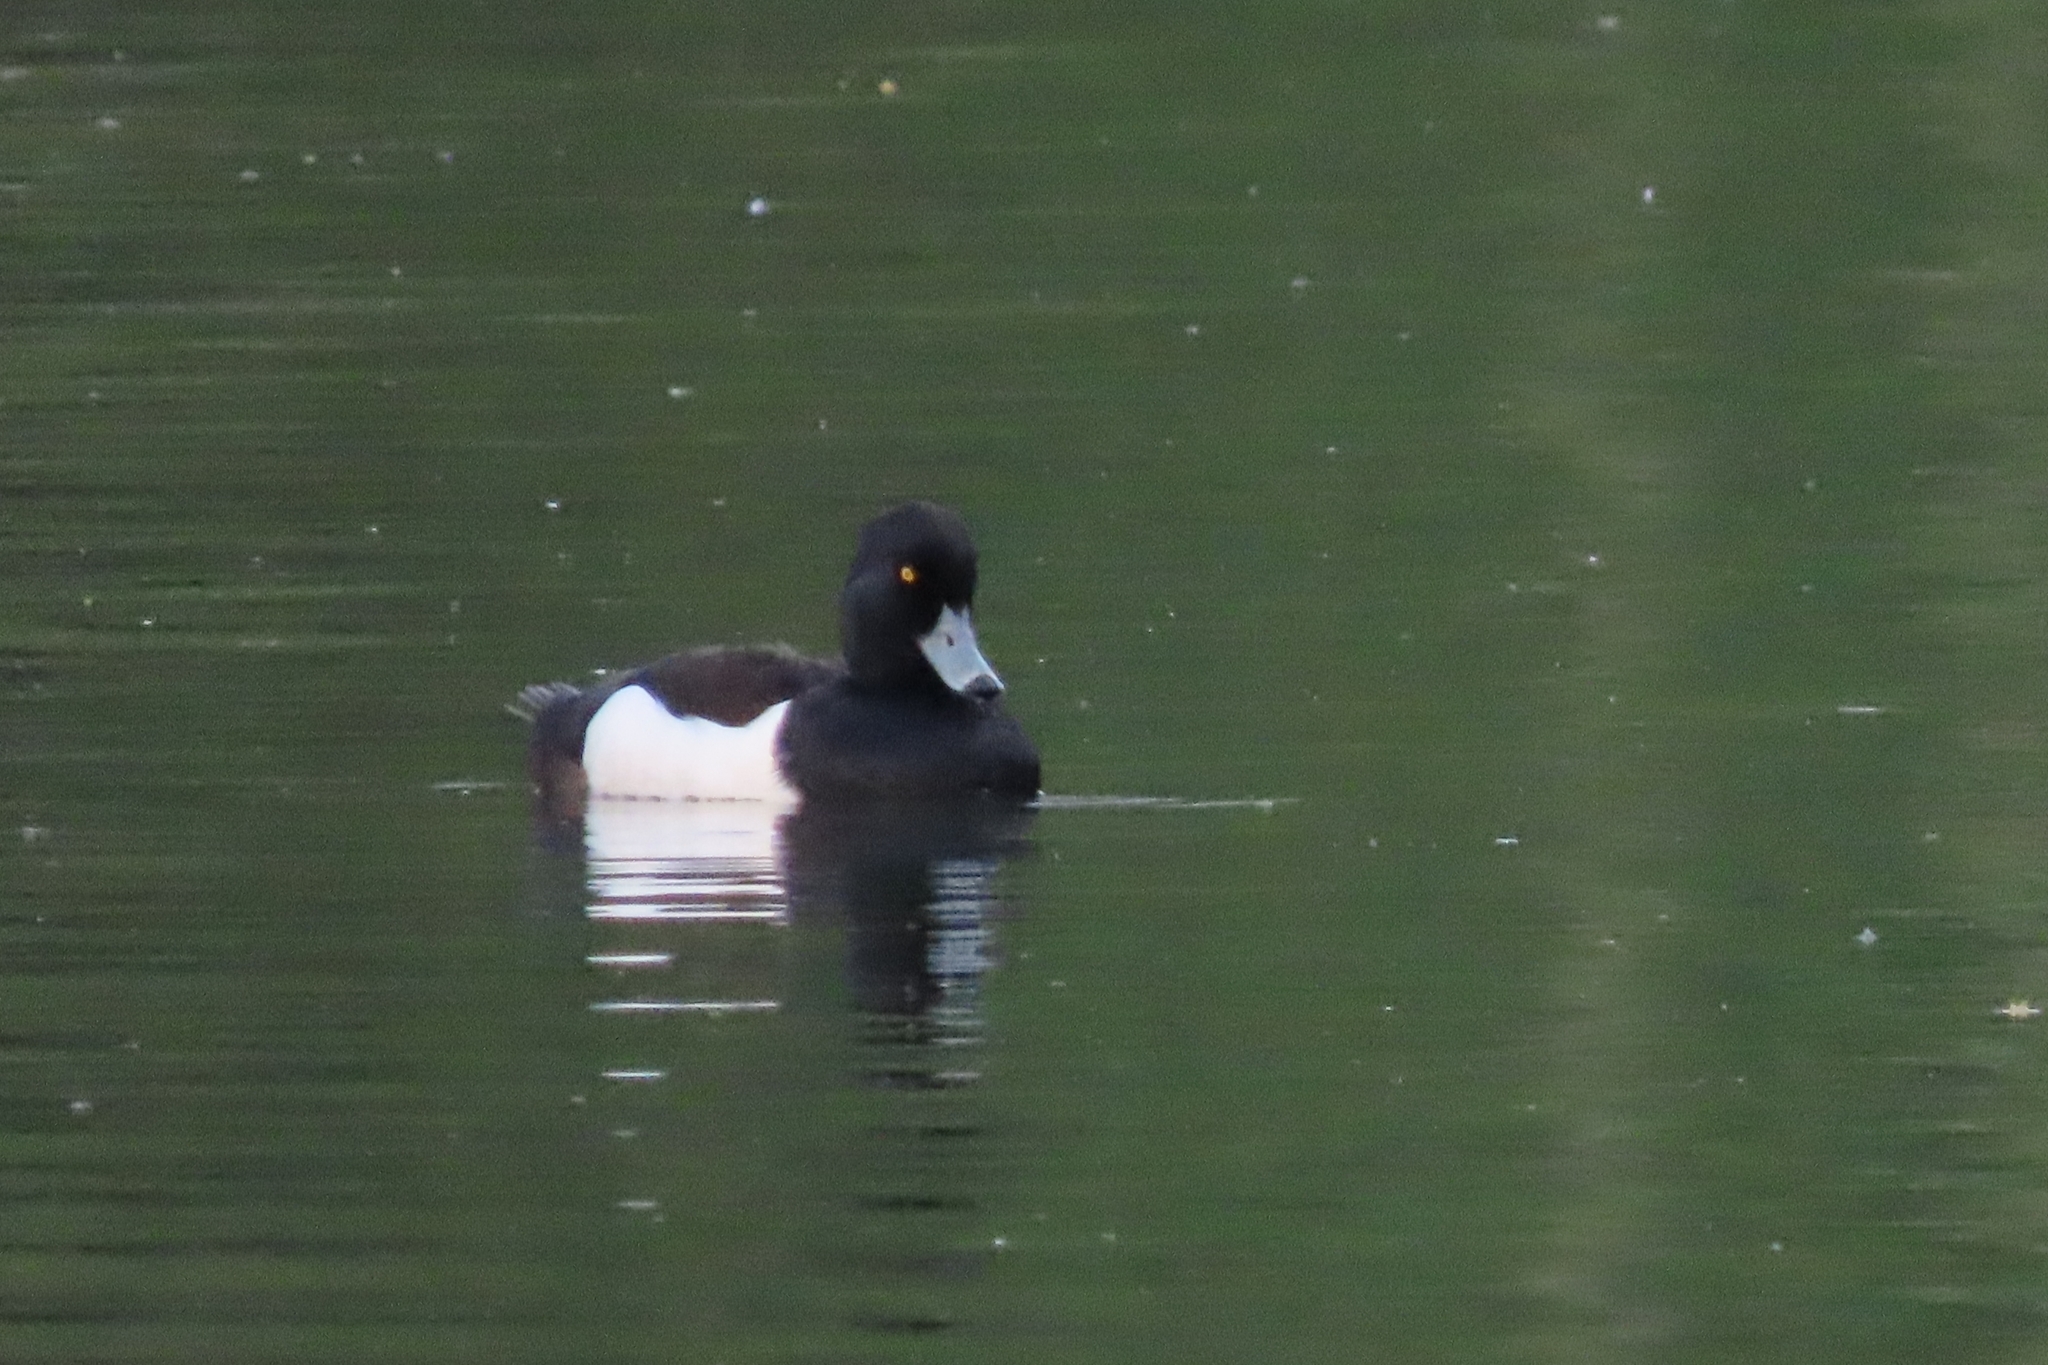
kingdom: Animalia
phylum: Chordata
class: Aves
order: Anseriformes
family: Anatidae
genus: Aythya
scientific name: Aythya fuligula
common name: Tufted duck
